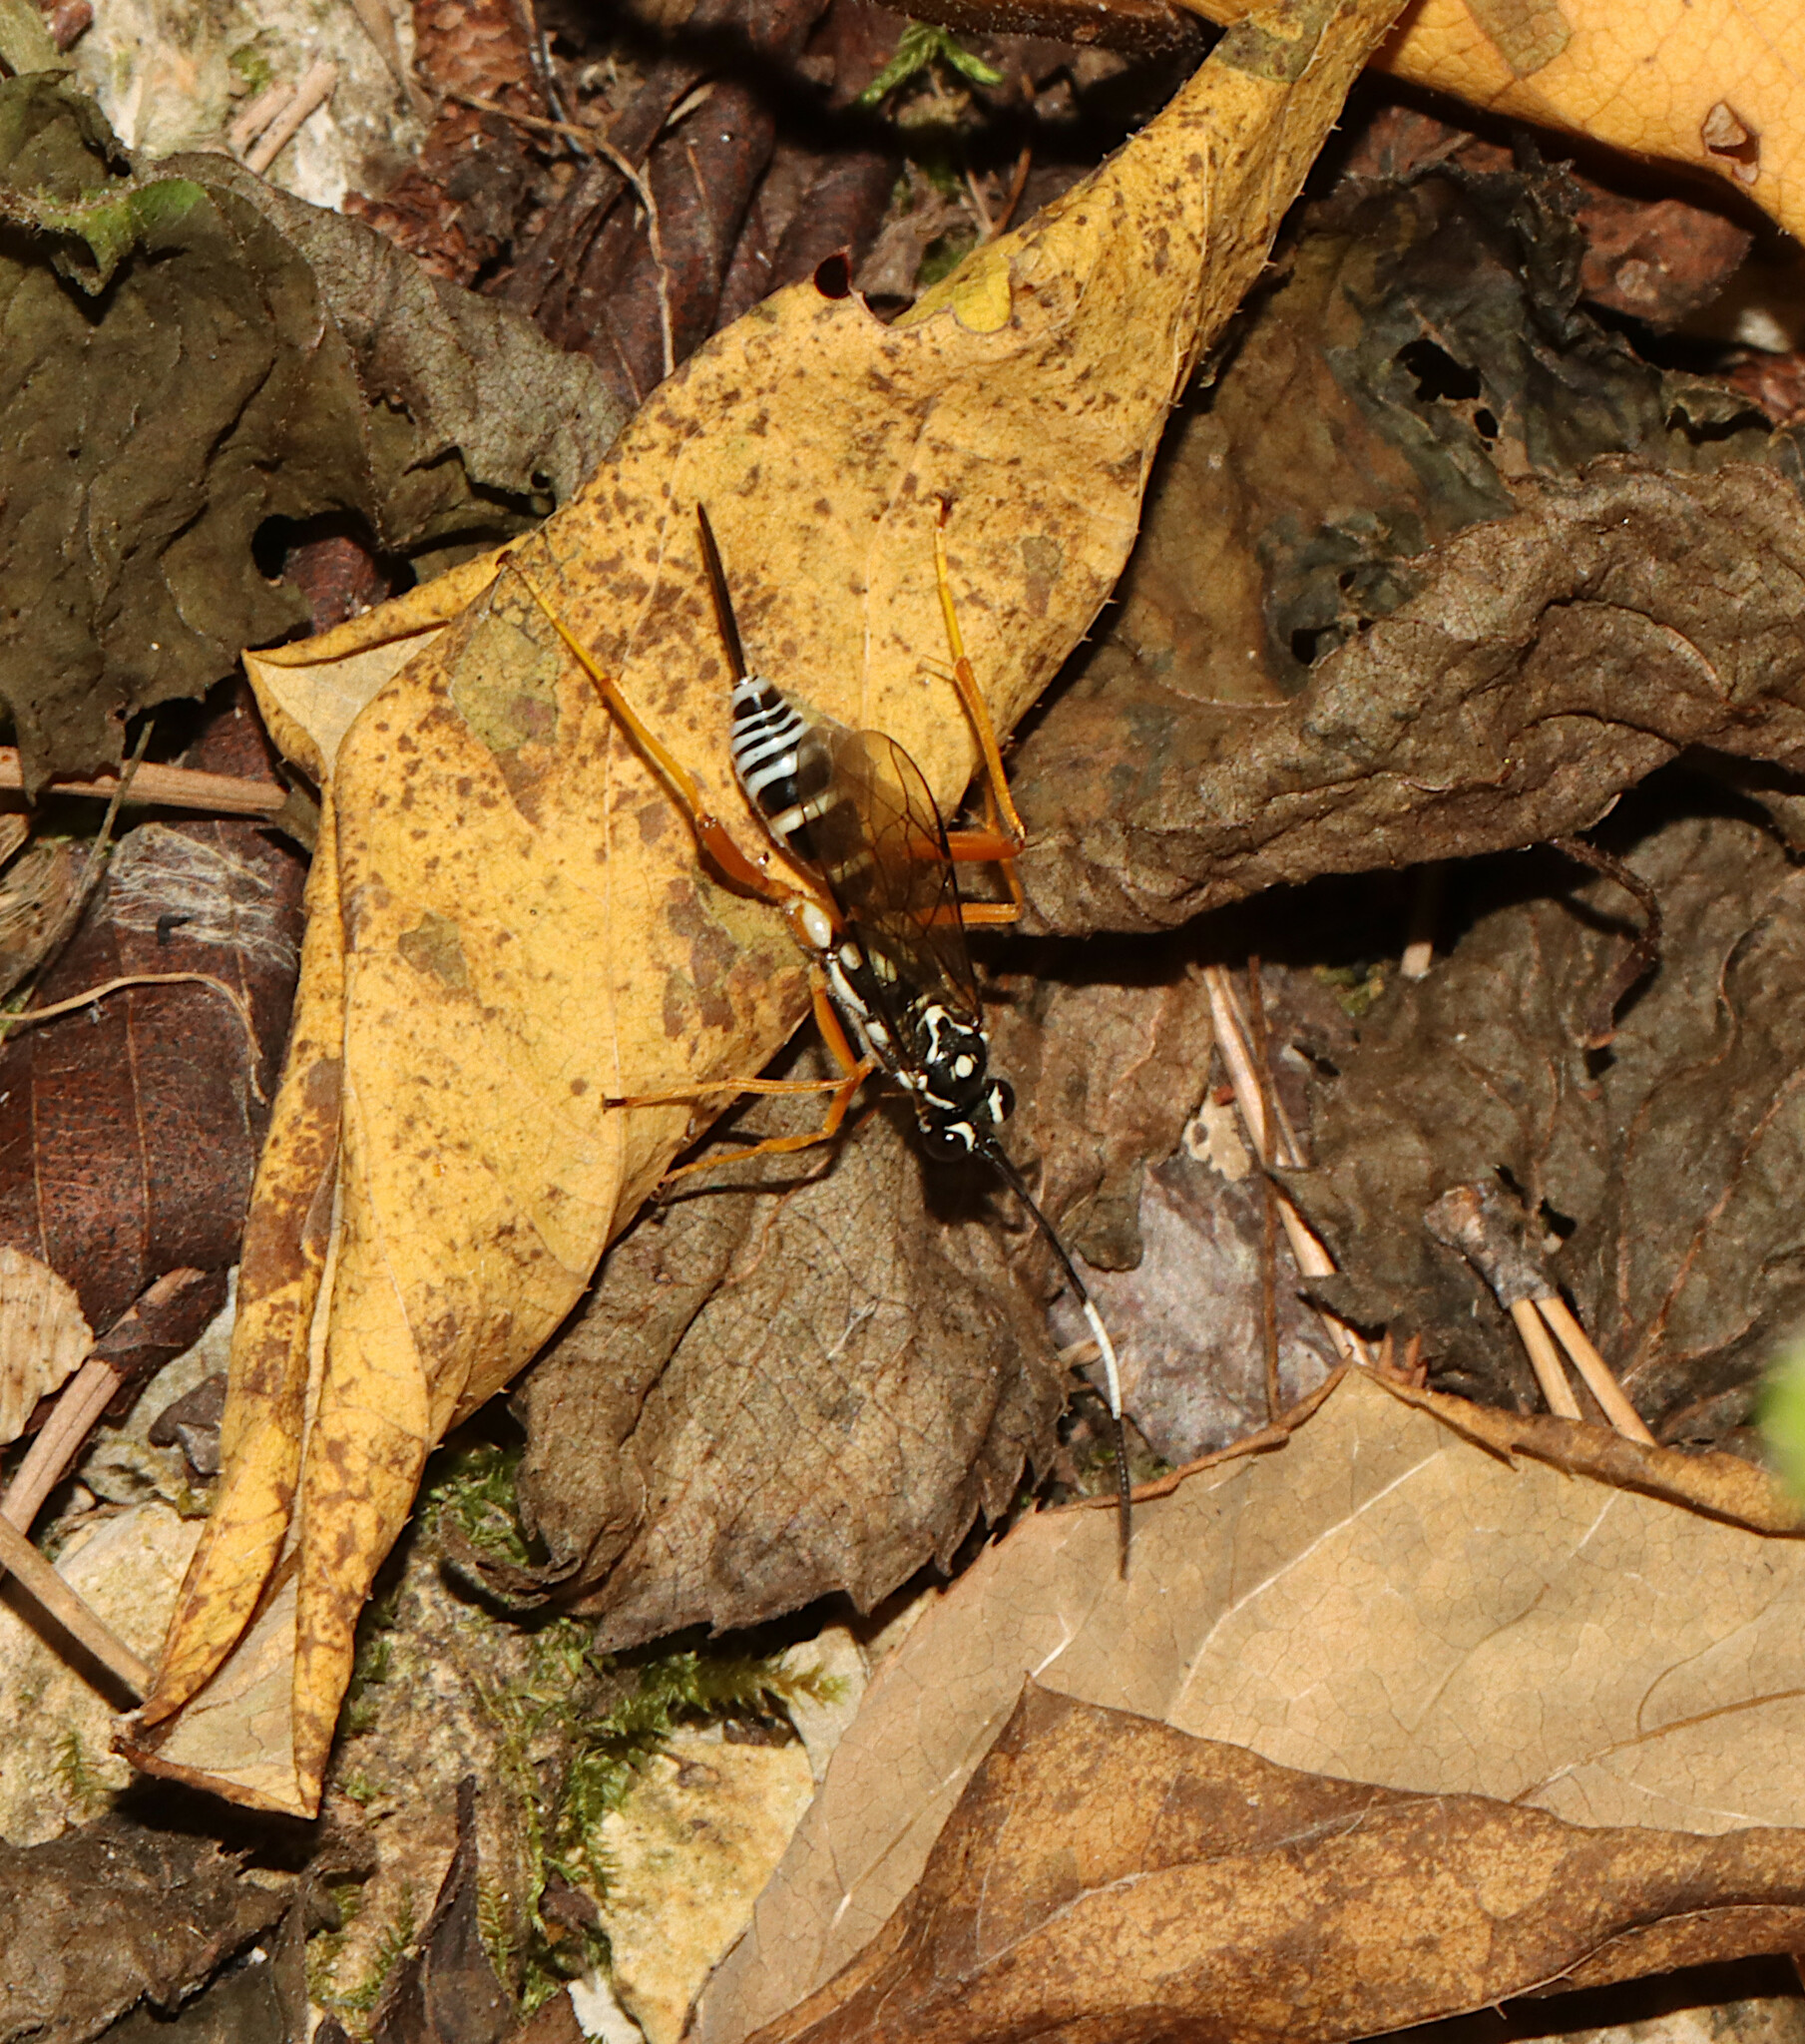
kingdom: Animalia
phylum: Arthropoda
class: Insecta
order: Hymenoptera
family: Ichneumonidae
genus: Cryptanura
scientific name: Cryptanura spinaria
